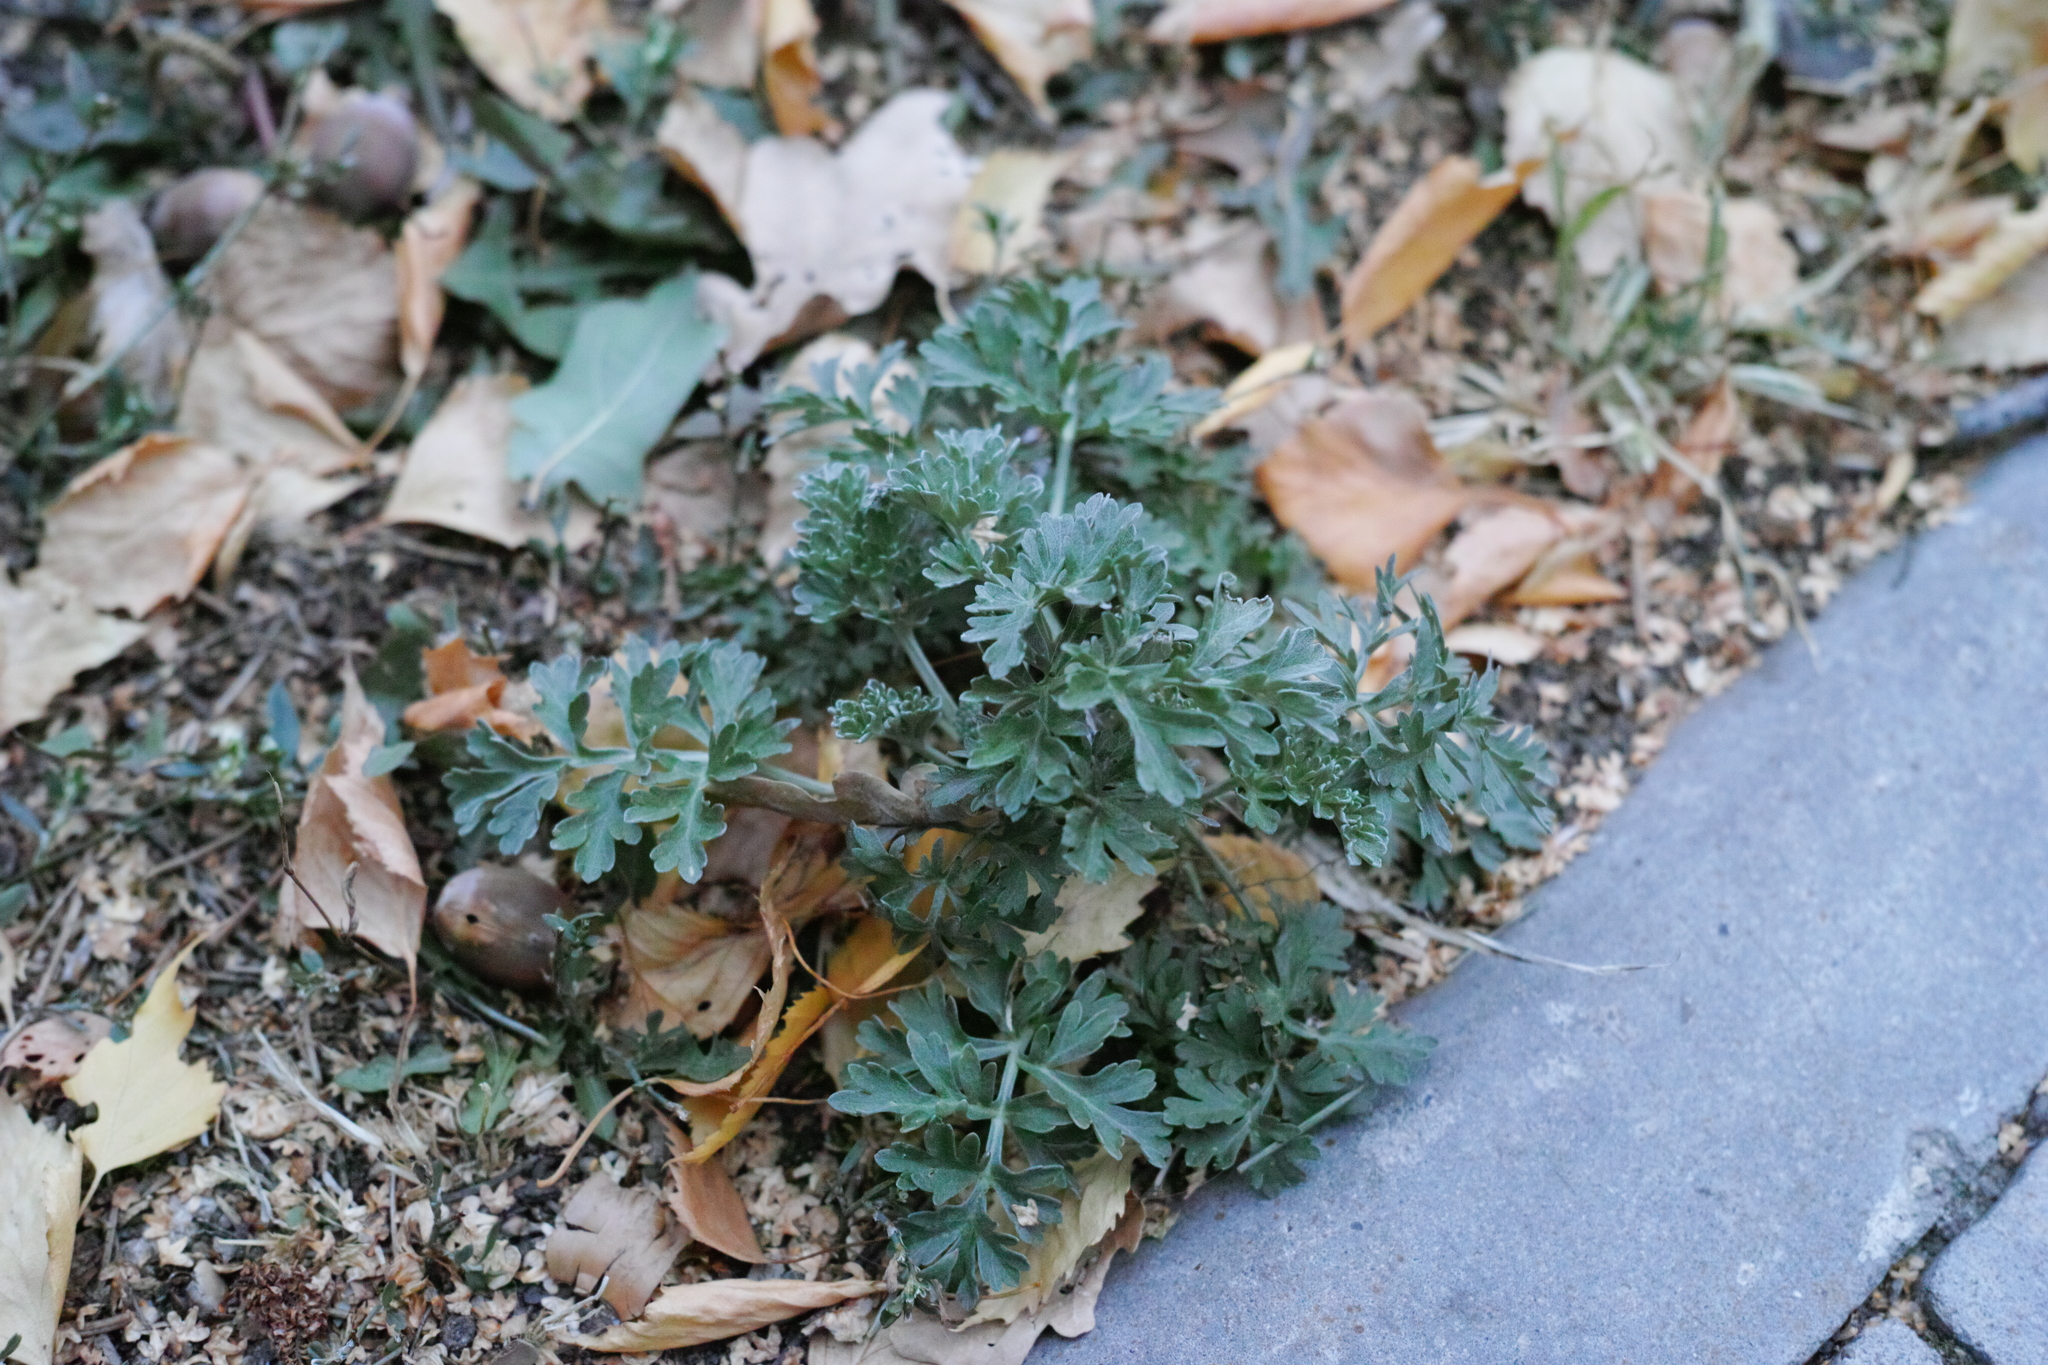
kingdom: Plantae
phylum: Tracheophyta
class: Magnoliopsida
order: Asterales
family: Asteraceae
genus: Artemisia
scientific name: Artemisia absinthium
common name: Wormwood
